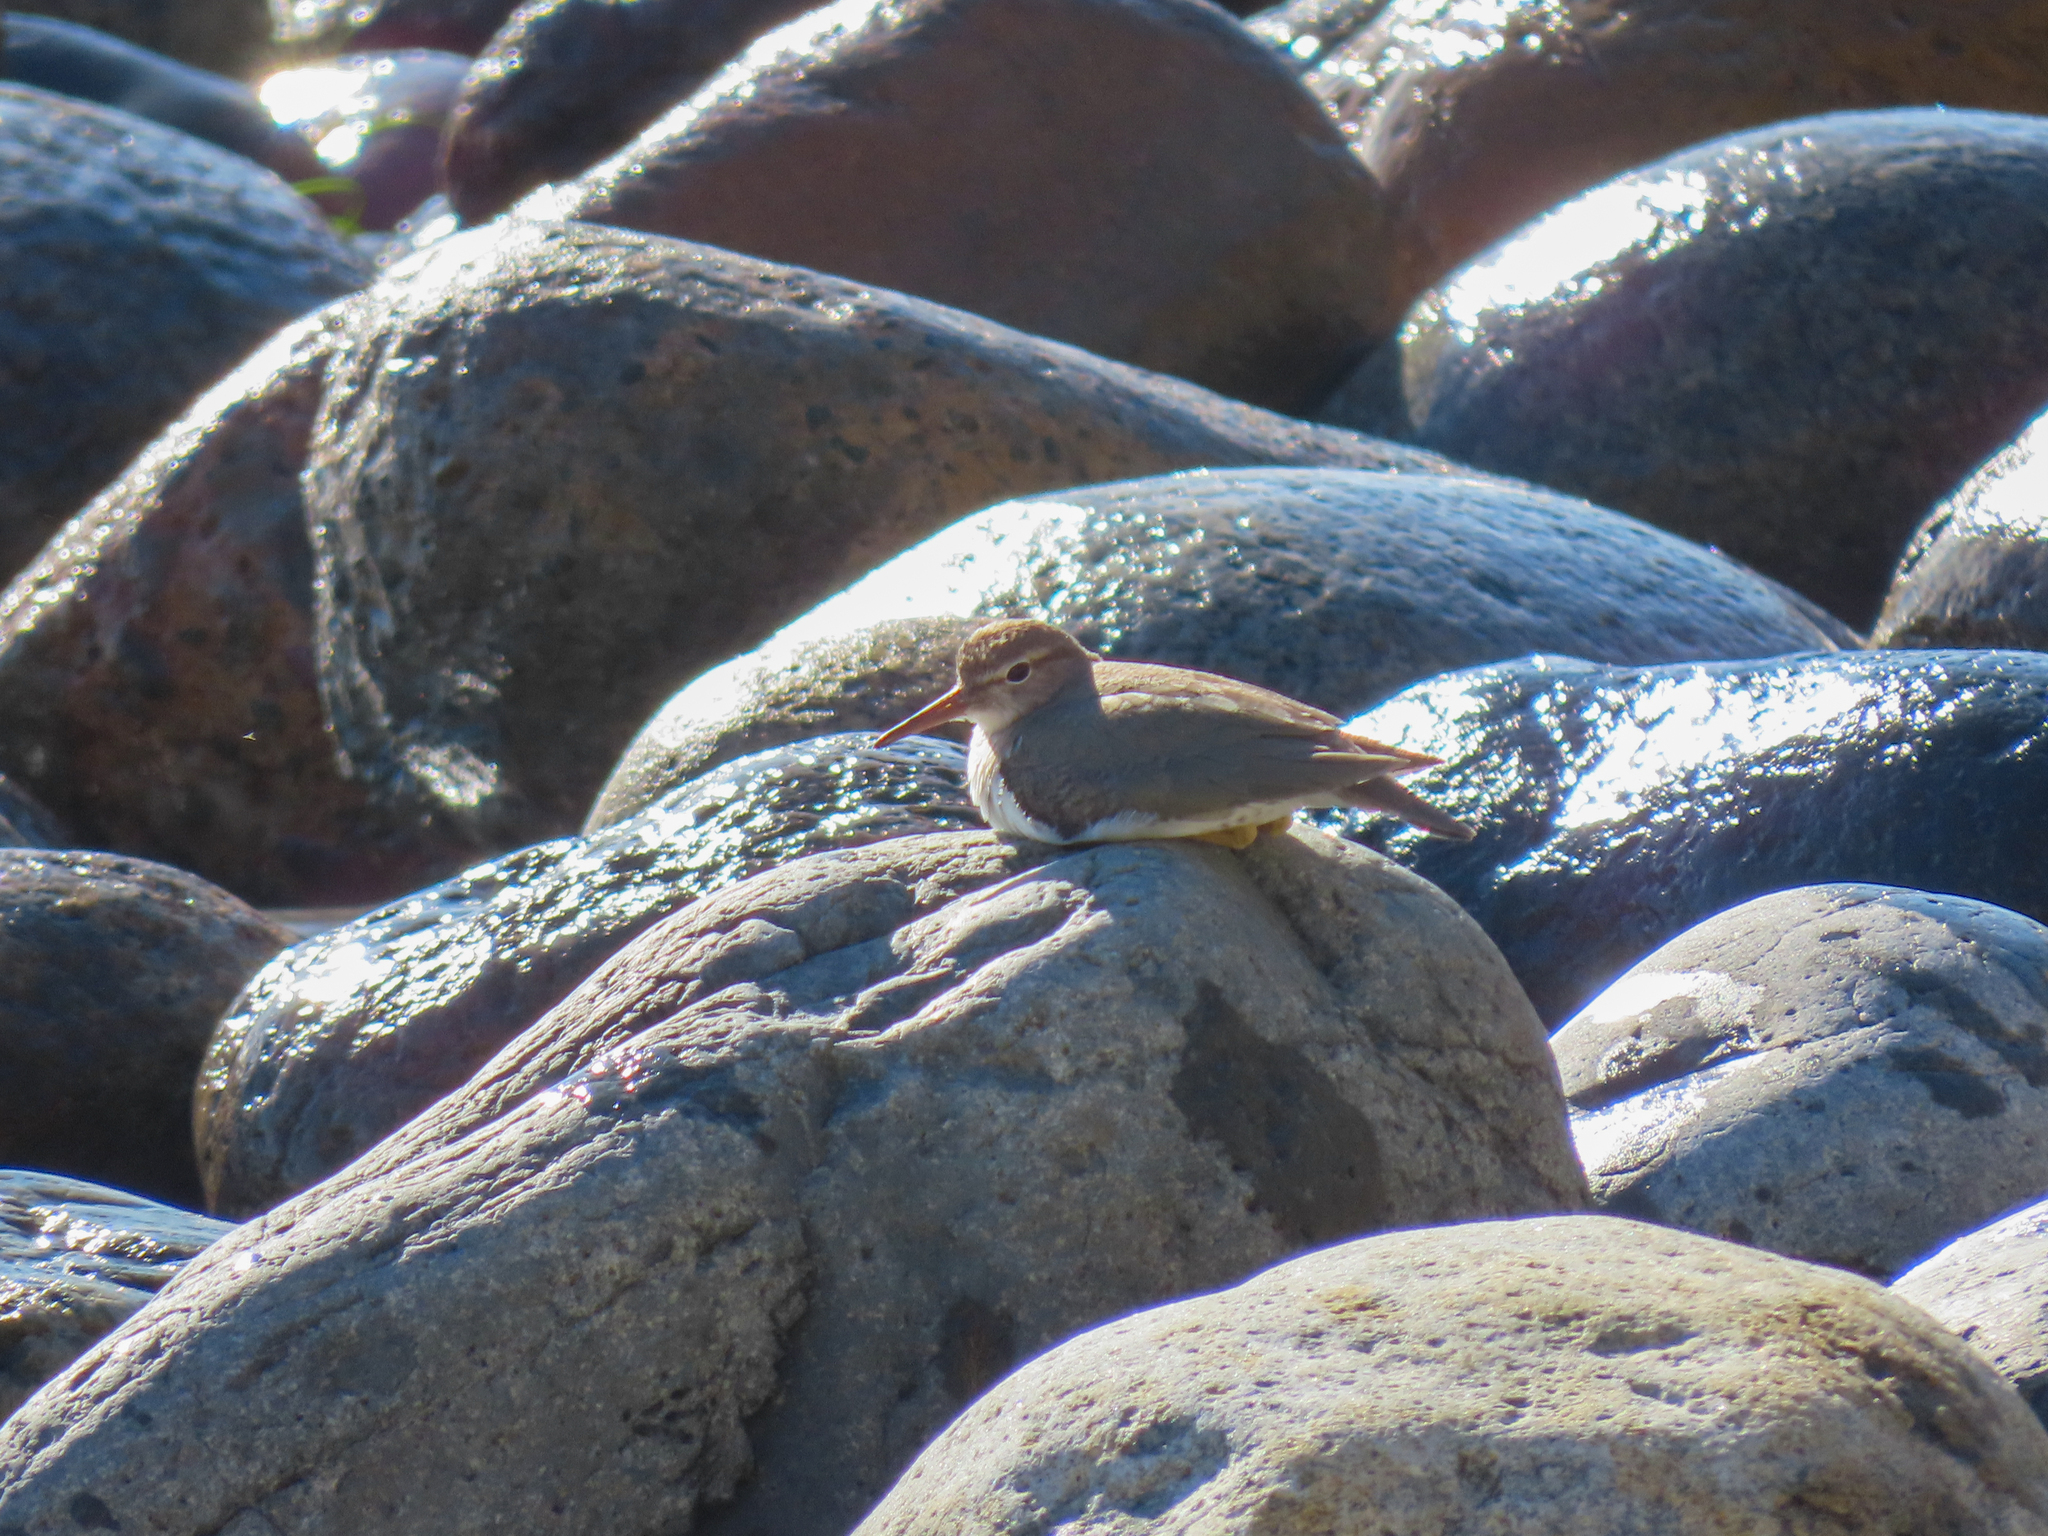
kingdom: Animalia
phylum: Chordata
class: Aves
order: Charadriiformes
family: Scolopacidae
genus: Actitis
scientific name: Actitis macularius
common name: Spotted sandpiper
